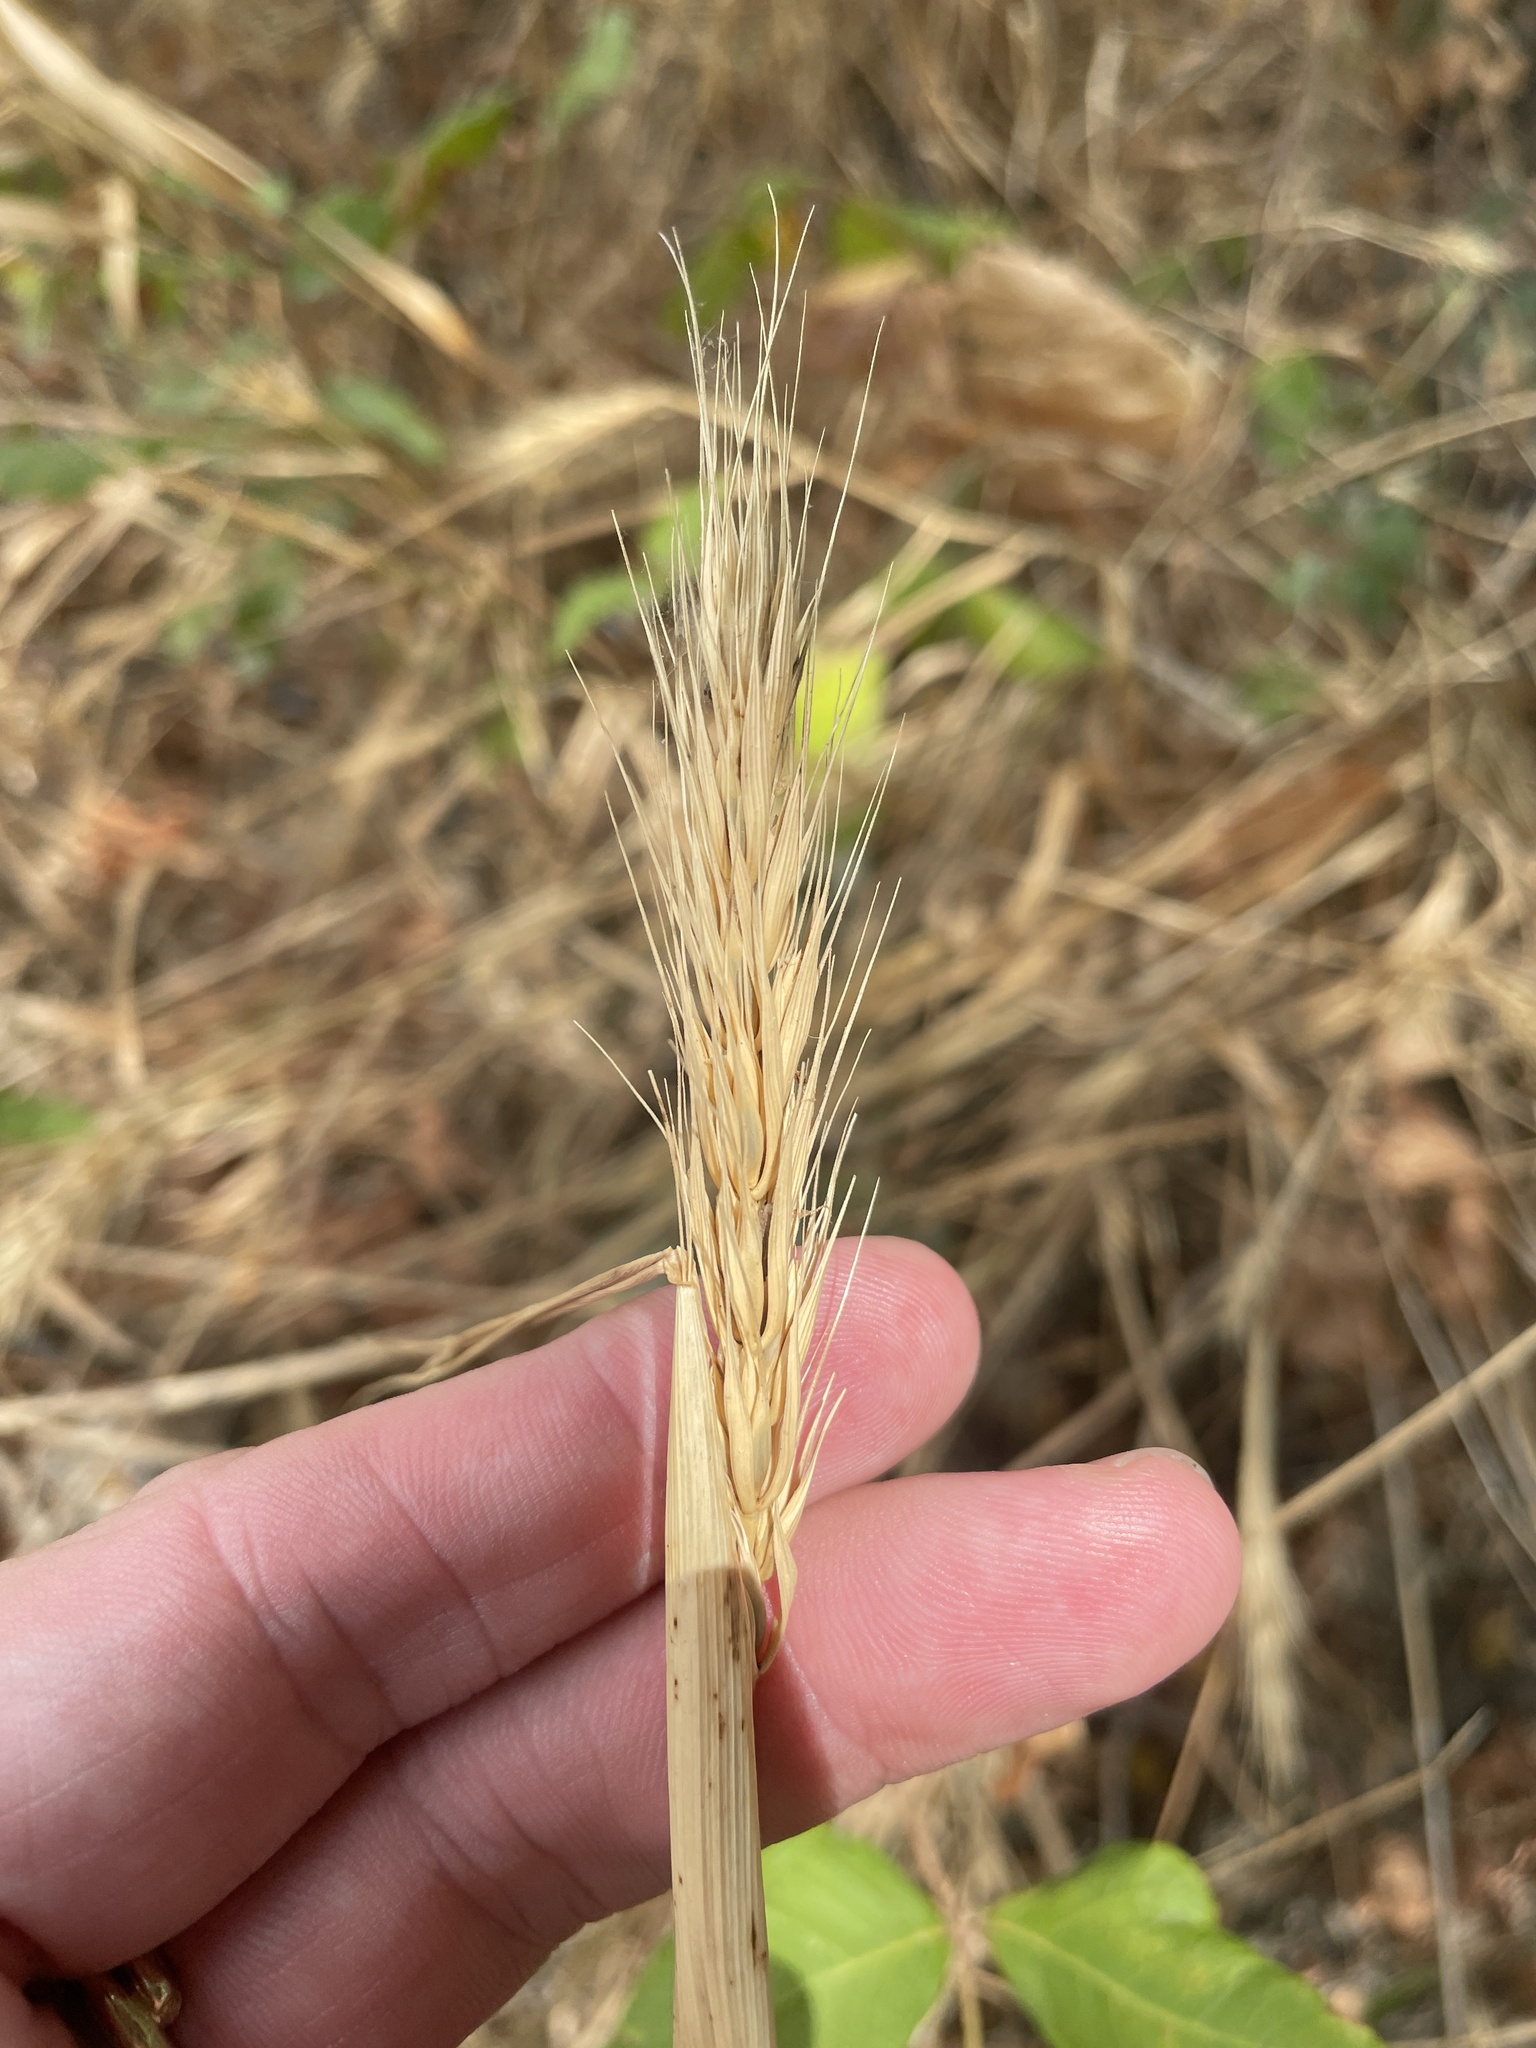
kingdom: Plantae
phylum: Tracheophyta
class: Liliopsida
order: Poales
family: Poaceae
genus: Elymus
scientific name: Elymus virginicus
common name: Common eastern wildrye
